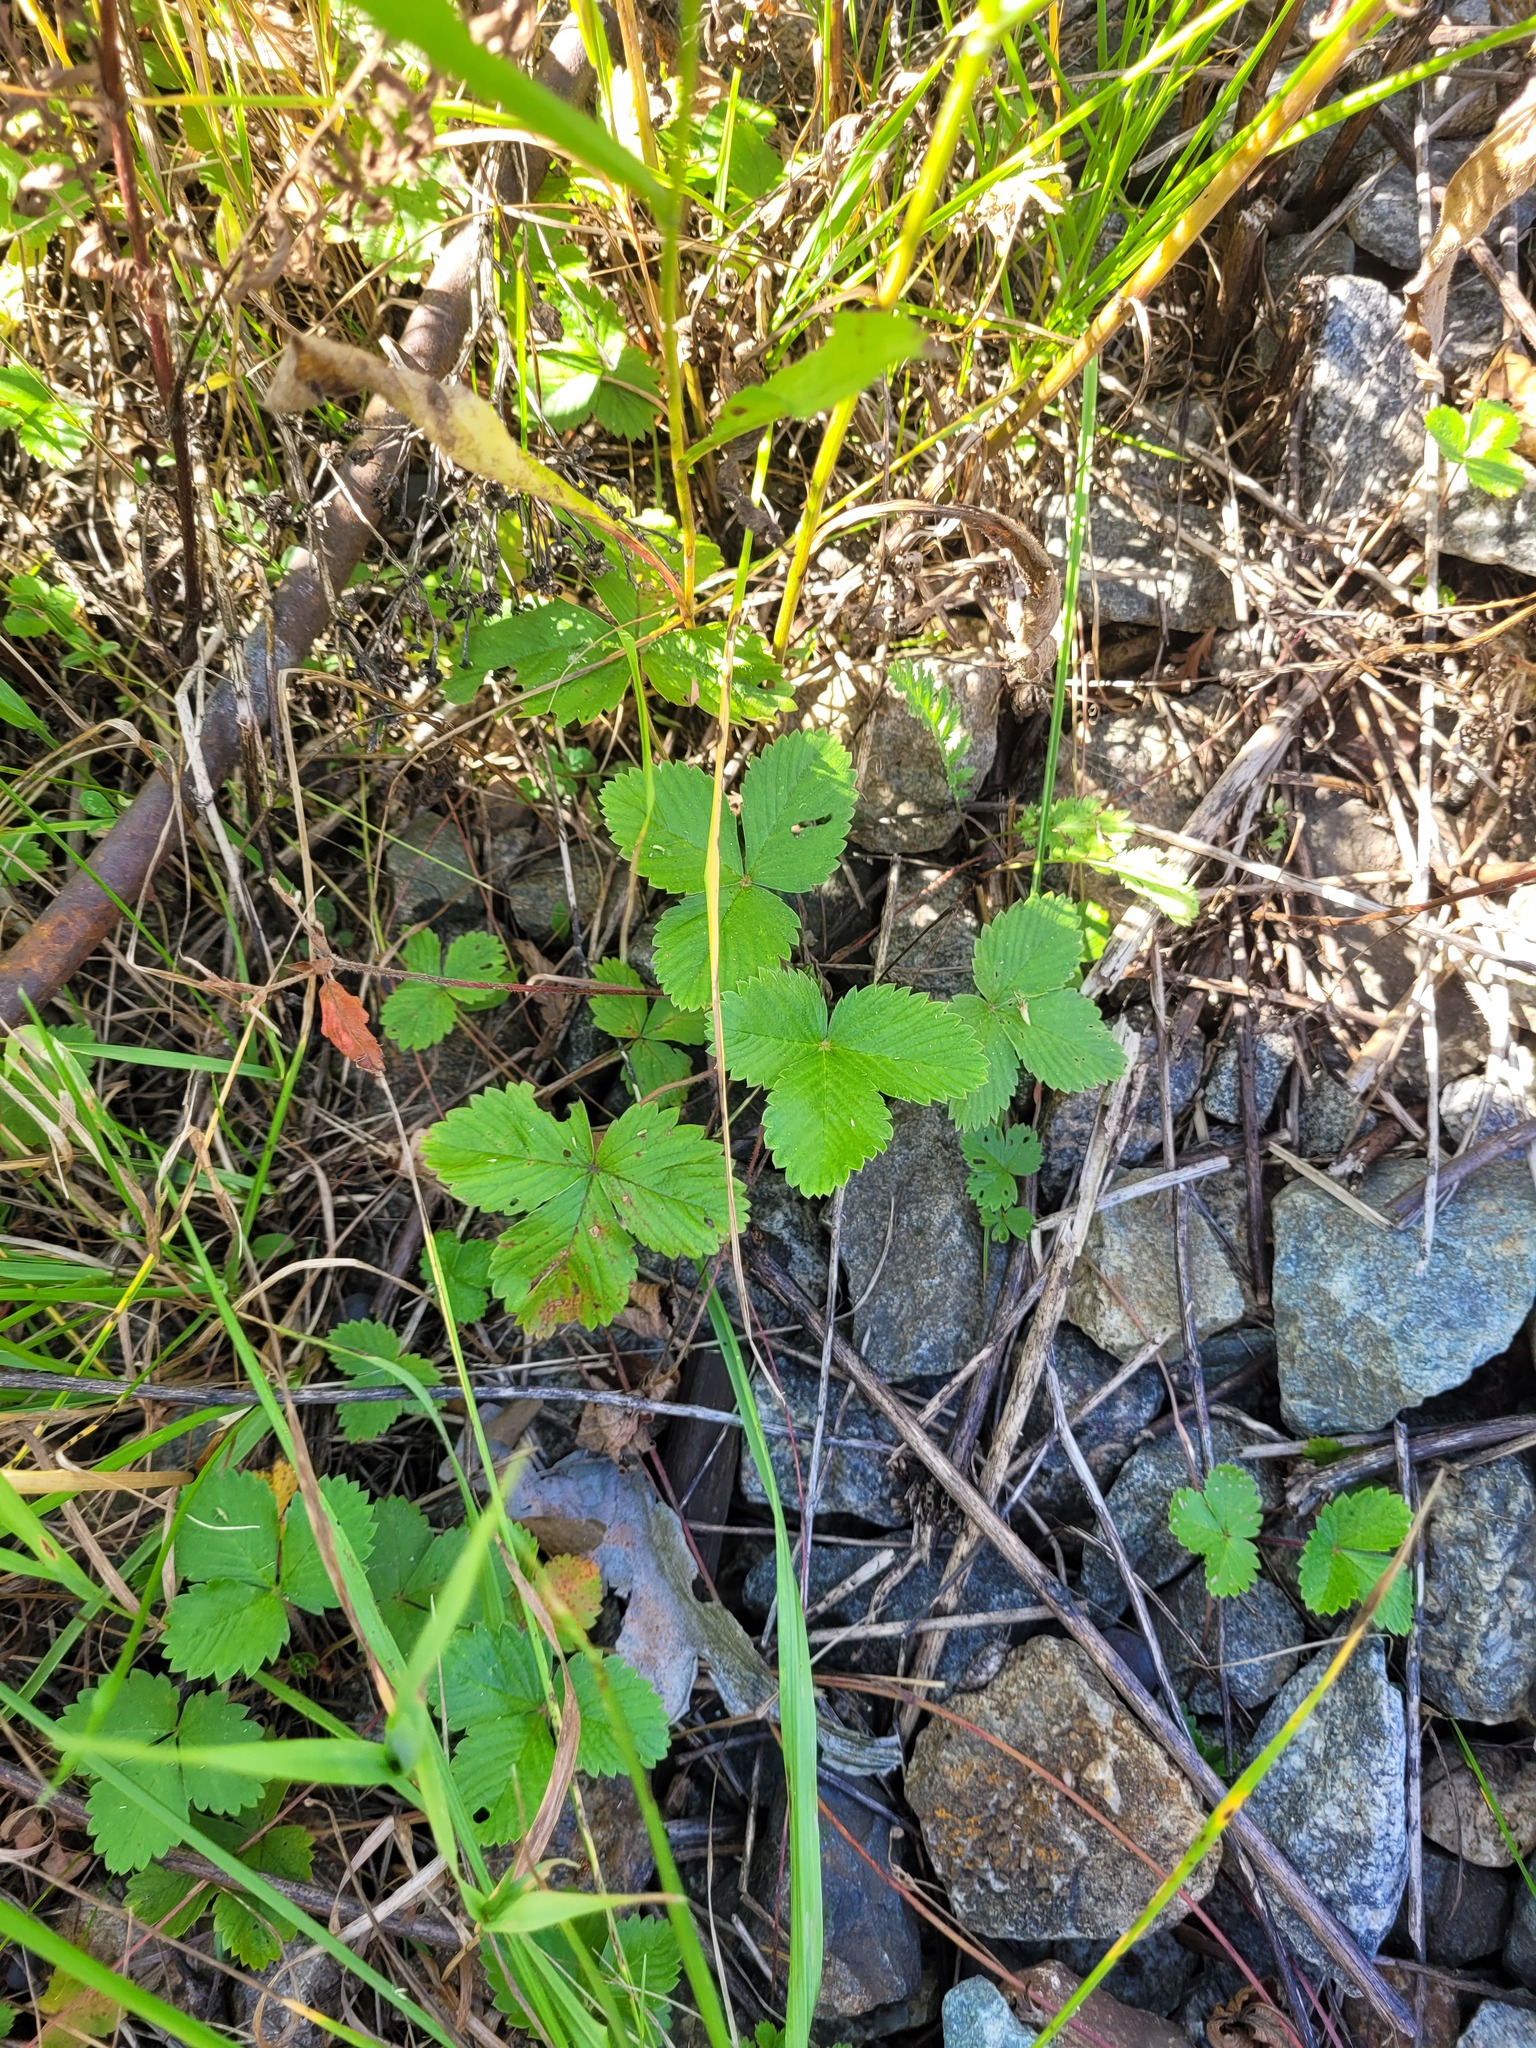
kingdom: Plantae
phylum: Tracheophyta
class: Magnoliopsida
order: Rosales
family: Rosaceae
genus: Fragaria
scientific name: Fragaria viridis
